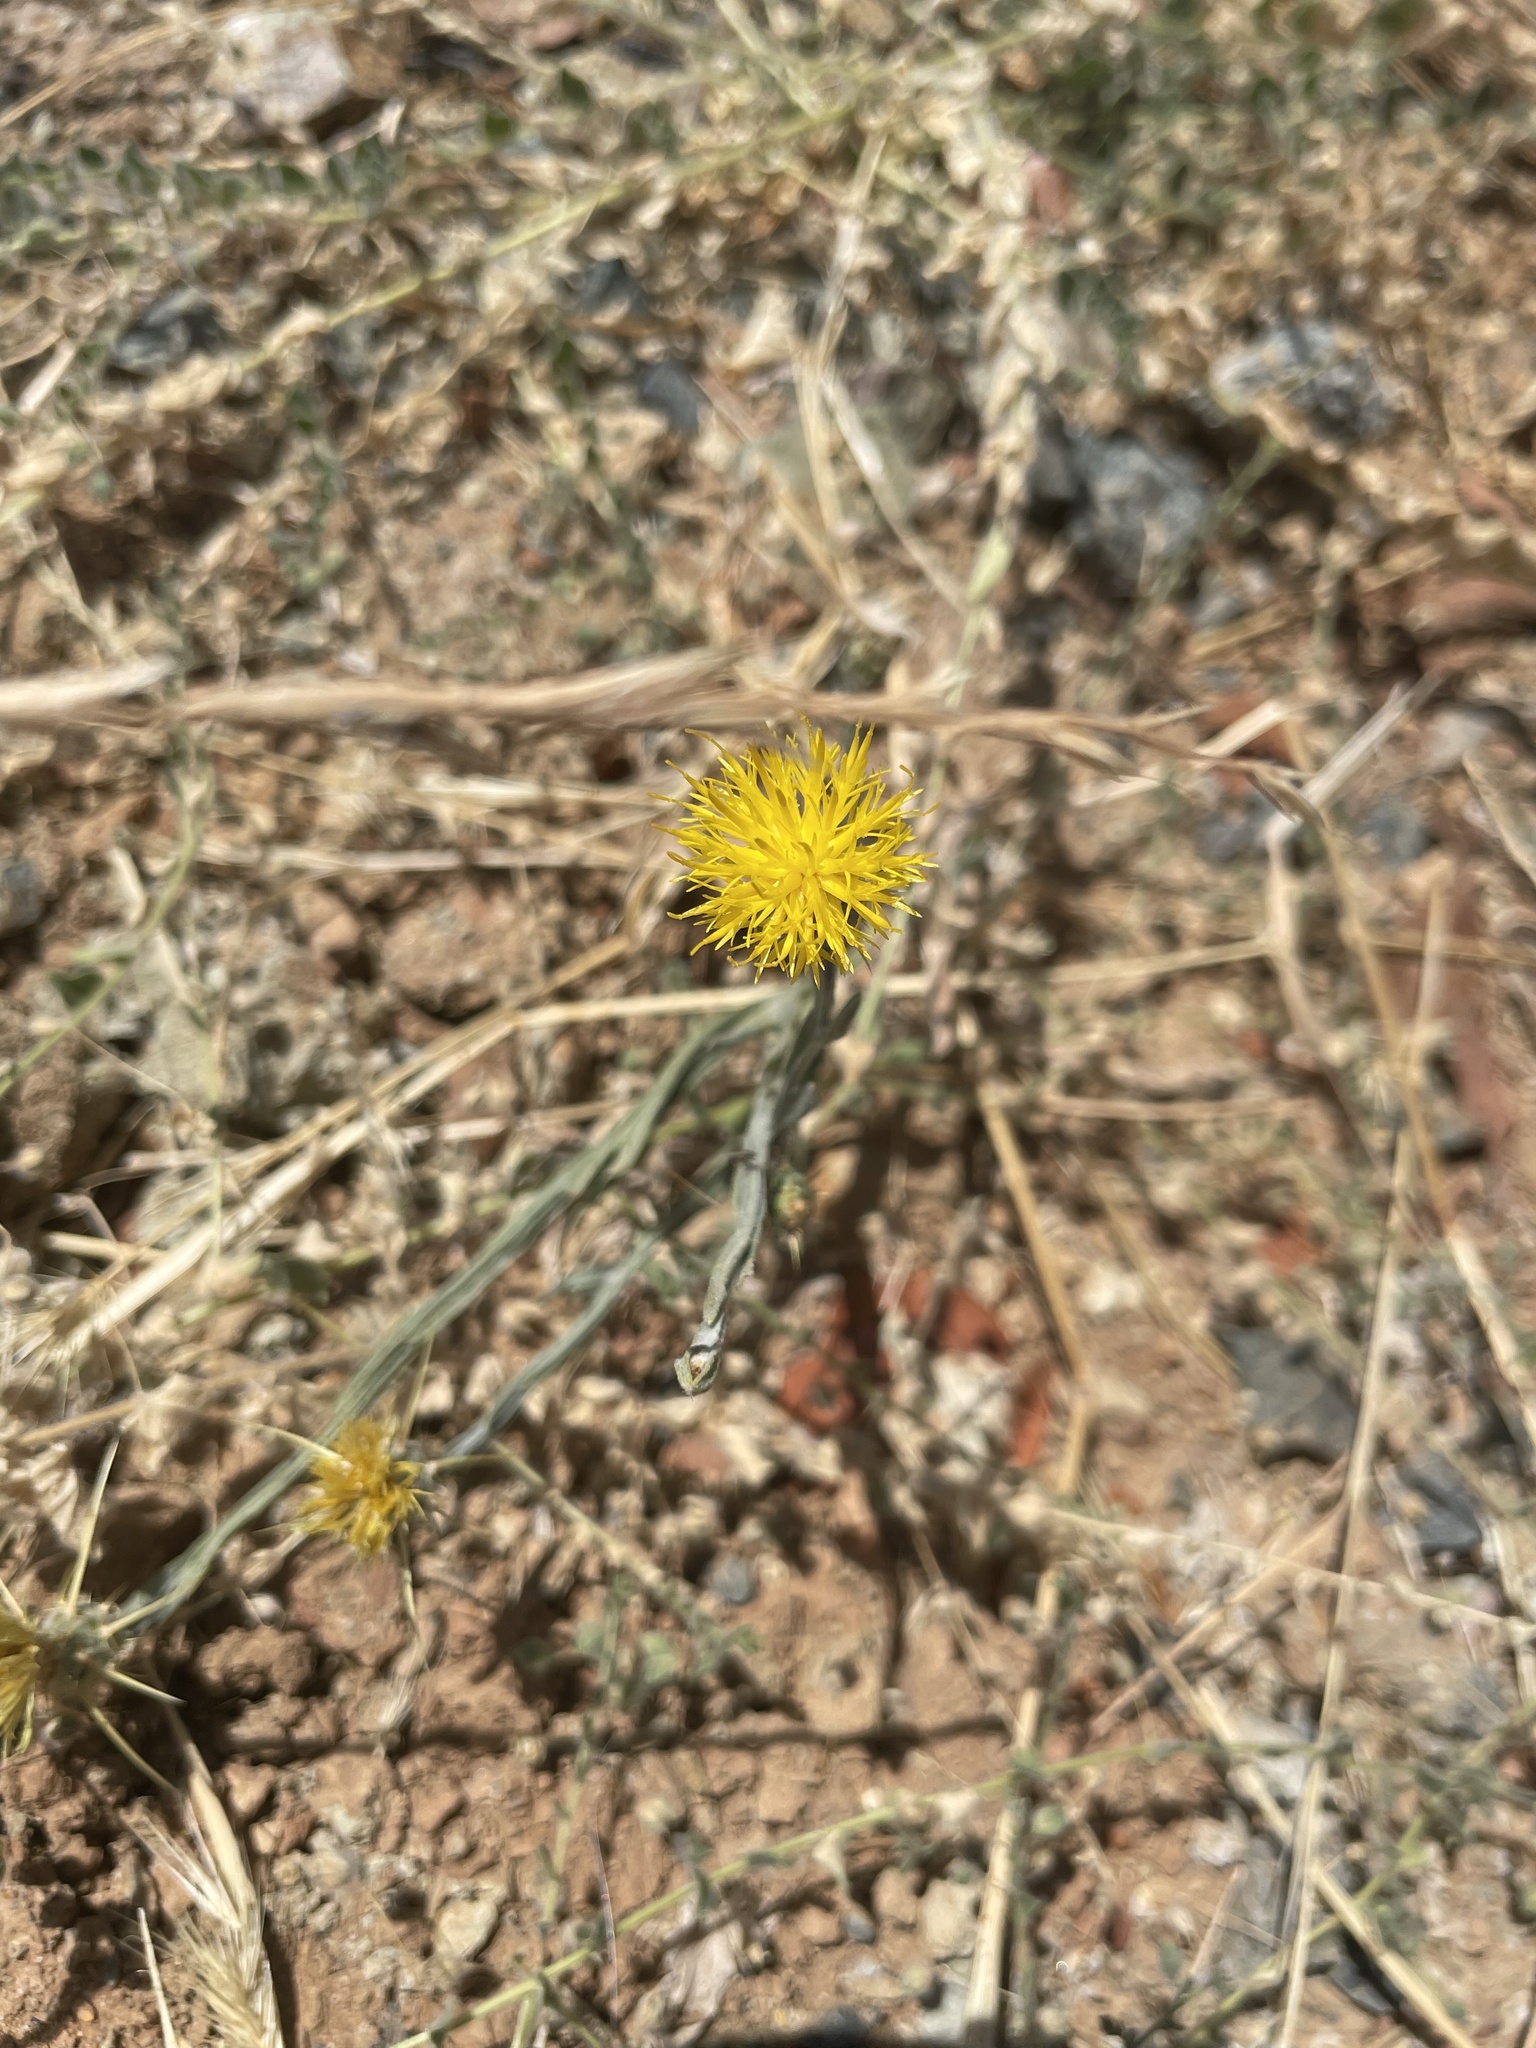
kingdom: Plantae
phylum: Tracheophyta
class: Magnoliopsida
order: Asterales
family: Asteraceae
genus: Centaurea
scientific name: Centaurea solstitialis
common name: Yellow star-thistle
